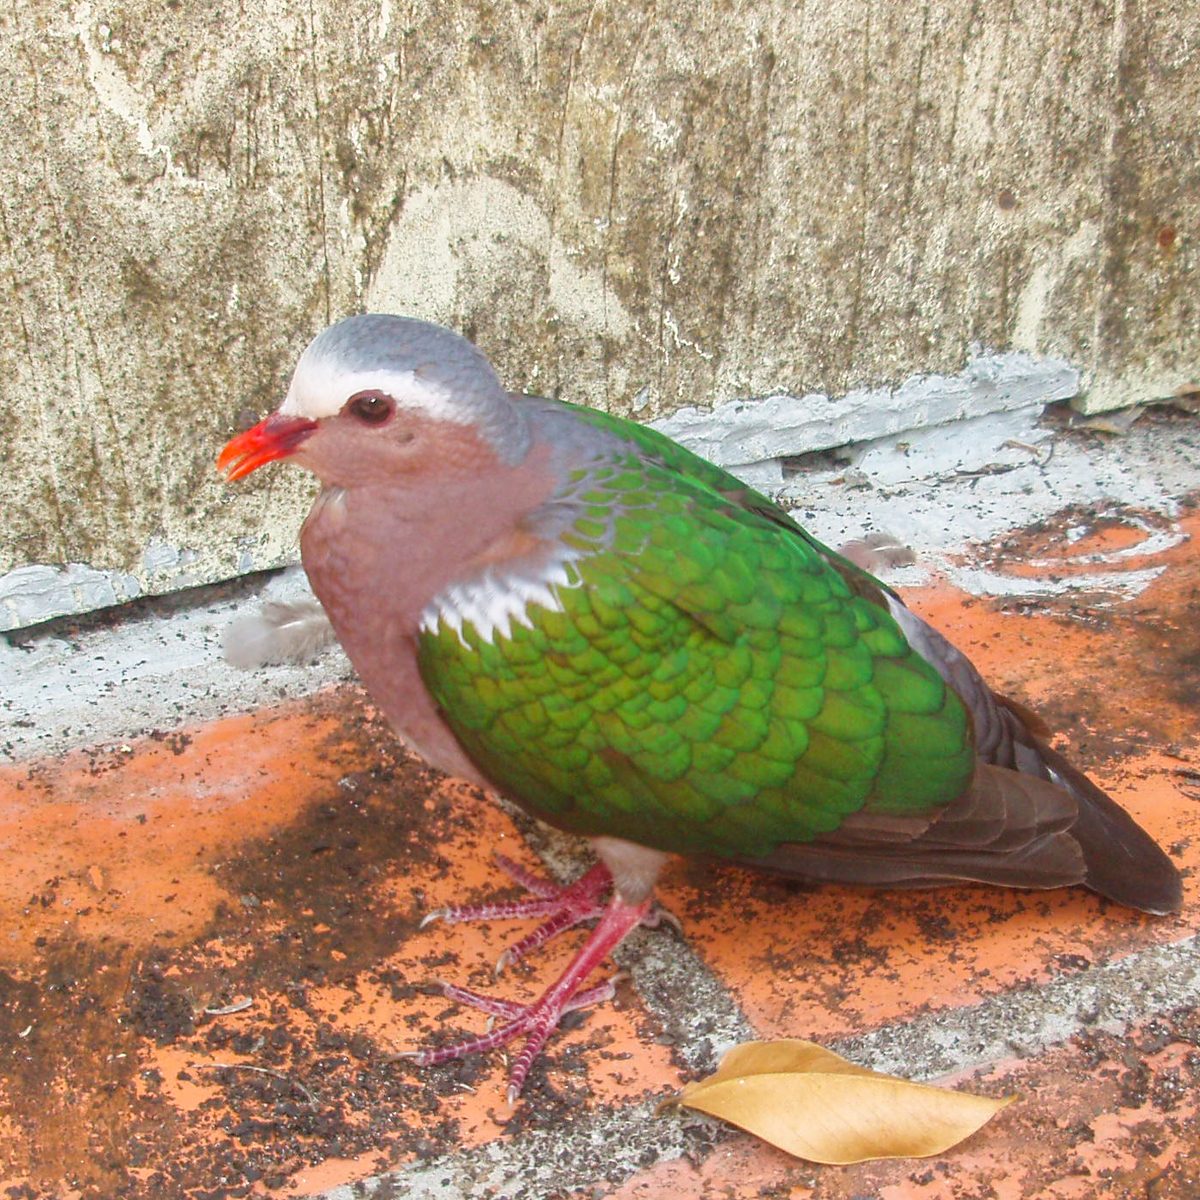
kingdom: Animalia
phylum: Chordata
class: Aves
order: Columbiformes
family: Columbidae
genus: Chalcophaps
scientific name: Chalcophaps indica
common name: Common emerald dove
